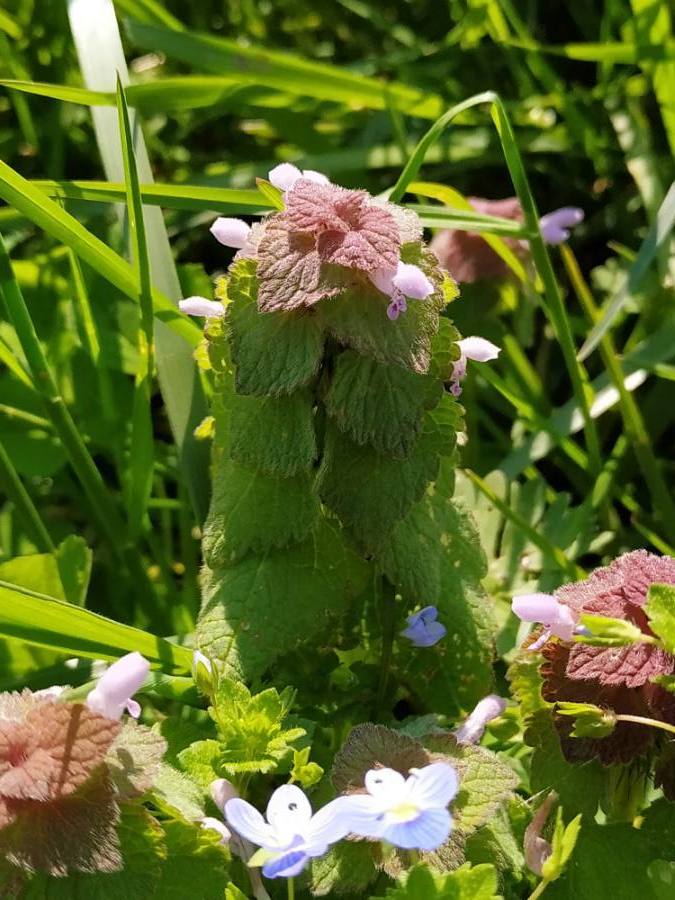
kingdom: Plantae
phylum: Tracheophyta
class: Magnoliopsida
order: Lamiales
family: Lamiaceae
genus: Lamium
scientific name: Lamium purpureum
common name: Red dead-nettle
